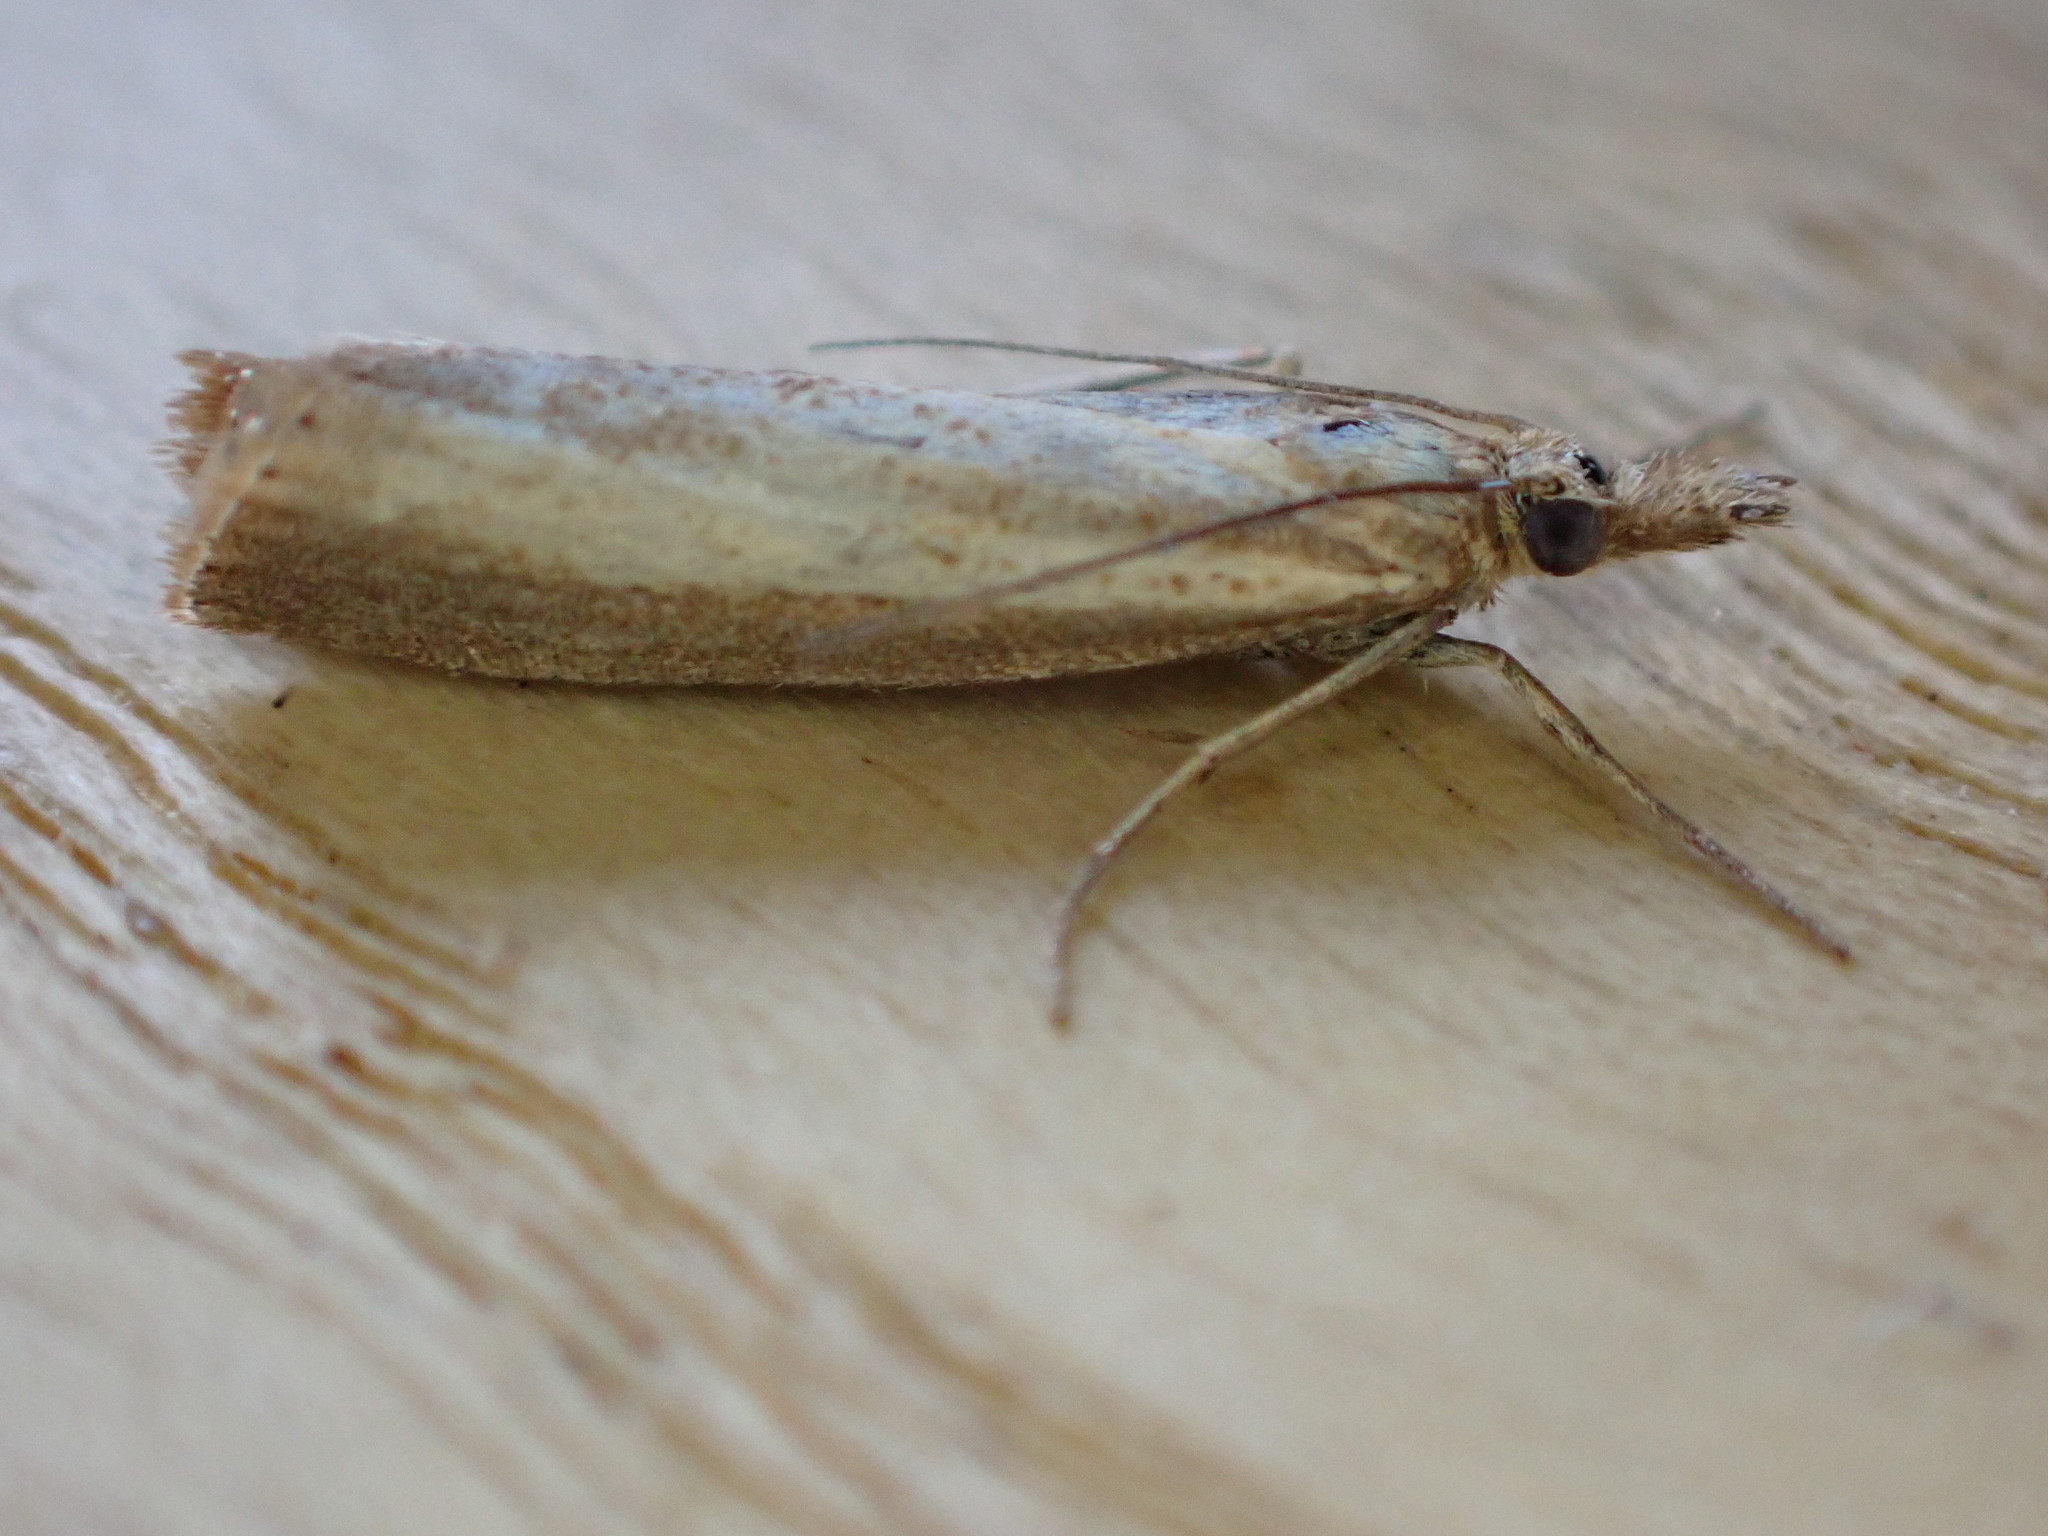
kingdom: Animalia
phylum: Arthropoda
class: Insecta
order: Lepidoptera
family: Crambidae
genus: Agriphila
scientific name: Agriphila straminella
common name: Straw grass-veneer
